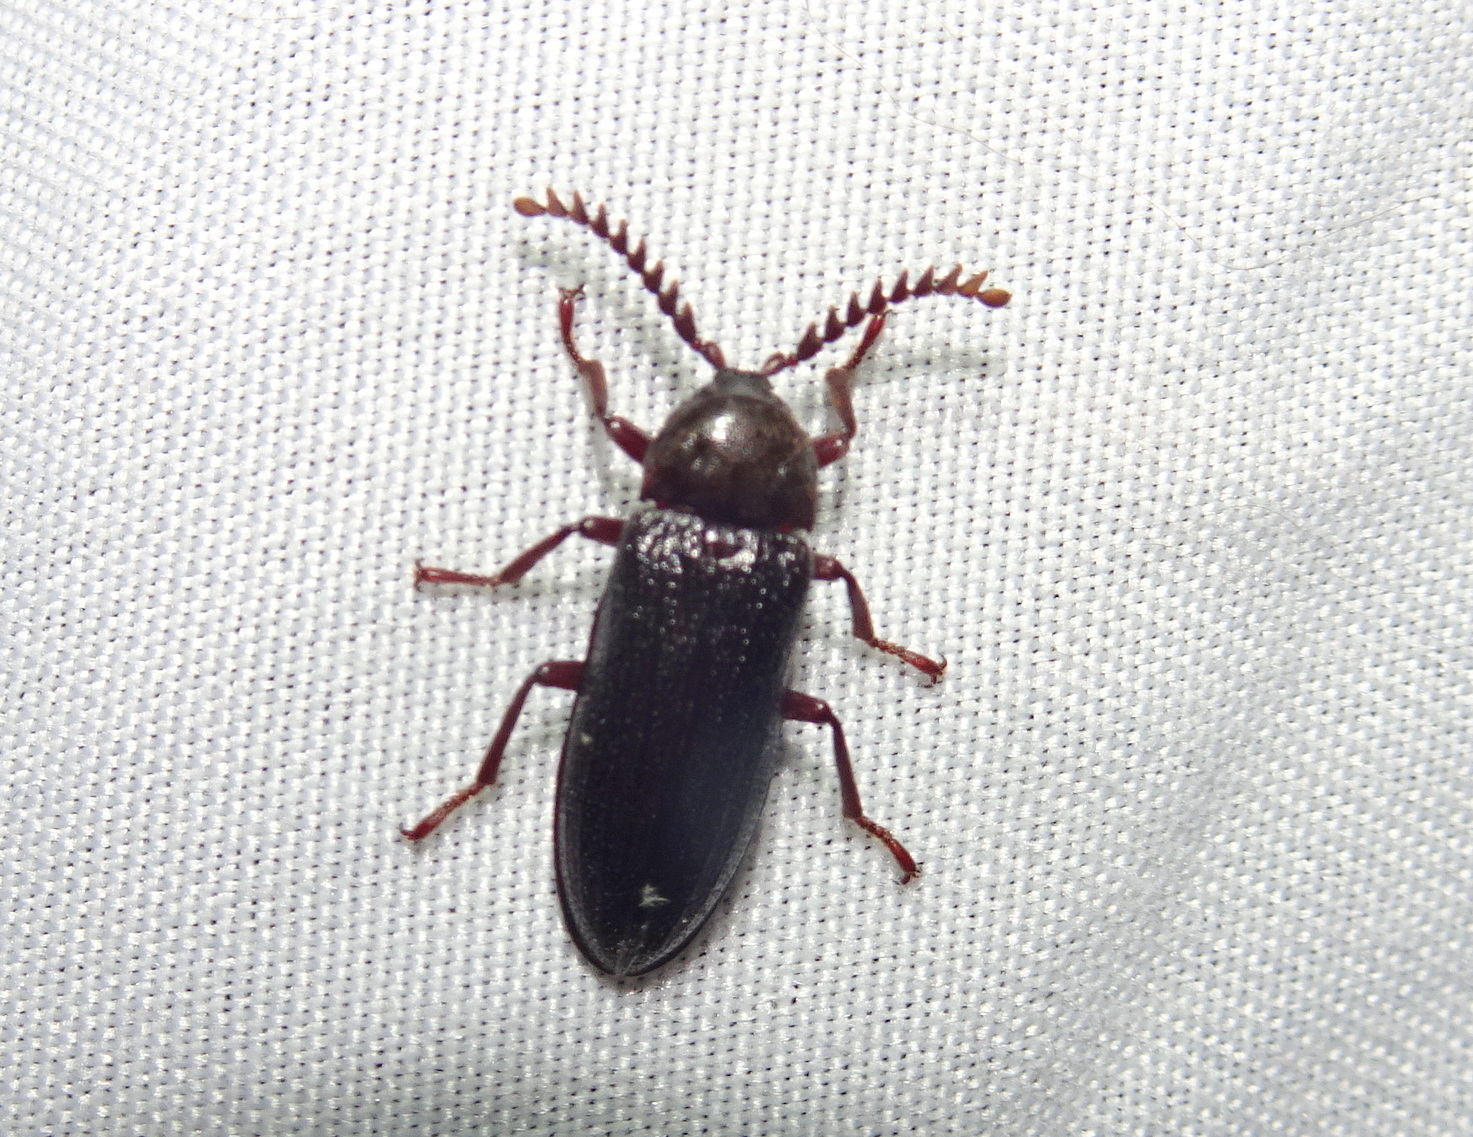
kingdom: Animalia
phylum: Arthropoda
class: Insecta
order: Coleoptera
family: Callirhipidae
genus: Zenoa
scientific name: Zenoa picea
